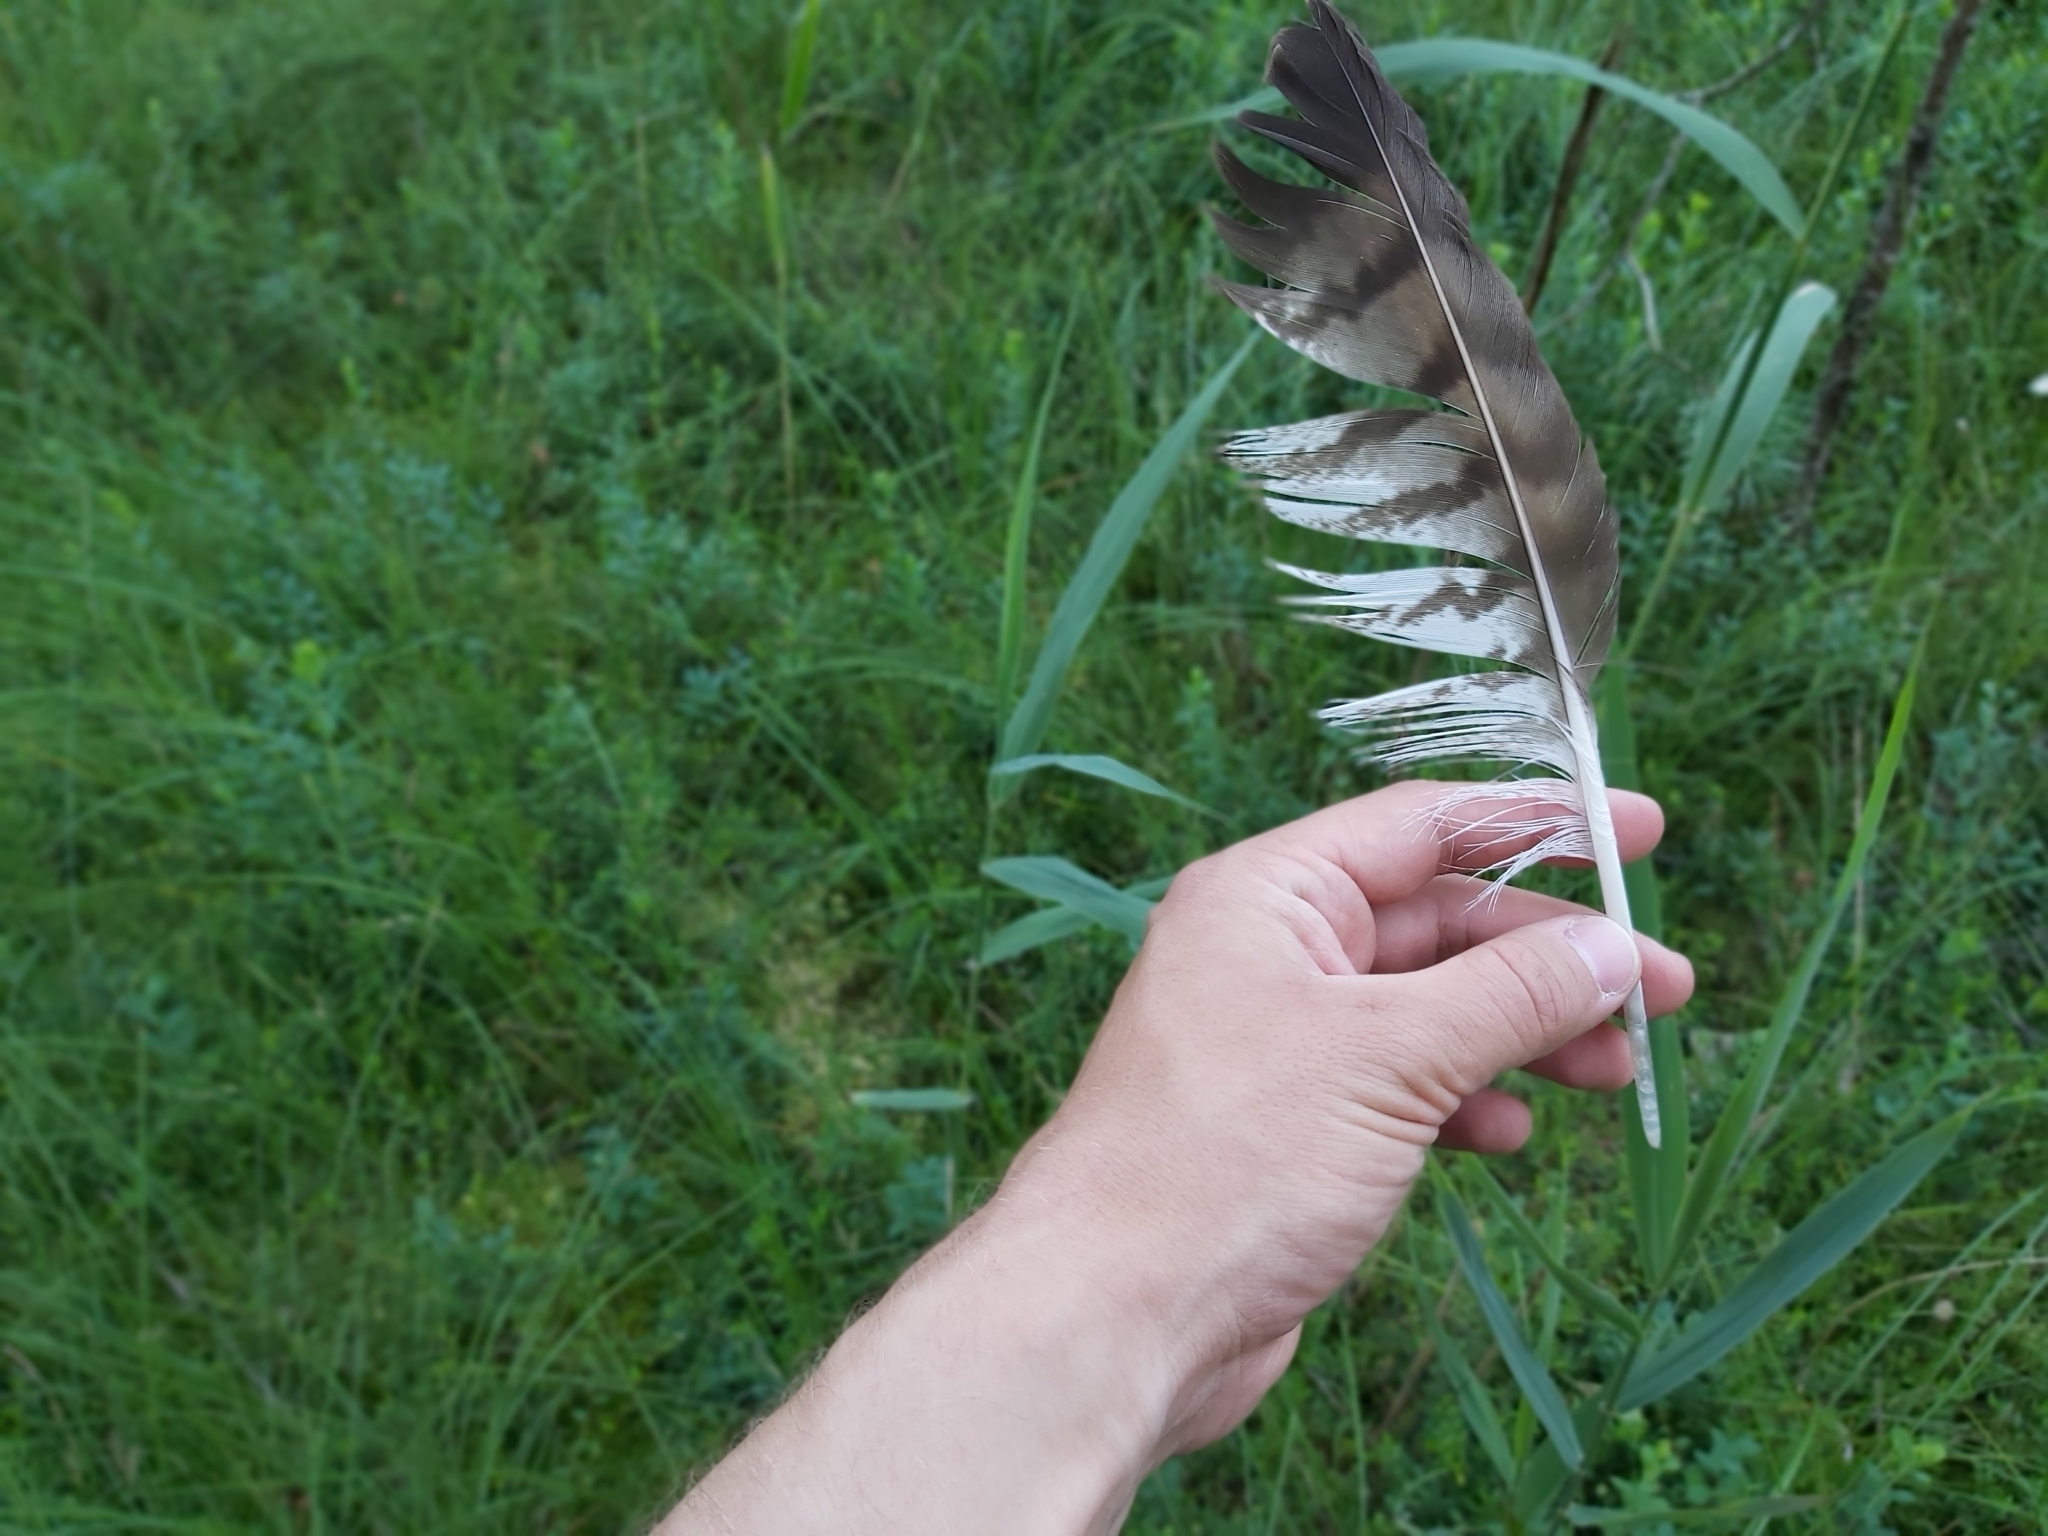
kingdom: Animalia
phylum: Chordata
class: Aves
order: Accipitriformes
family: Accipitridae
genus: Buteo
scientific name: Buteo buteo
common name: Common buzzard
